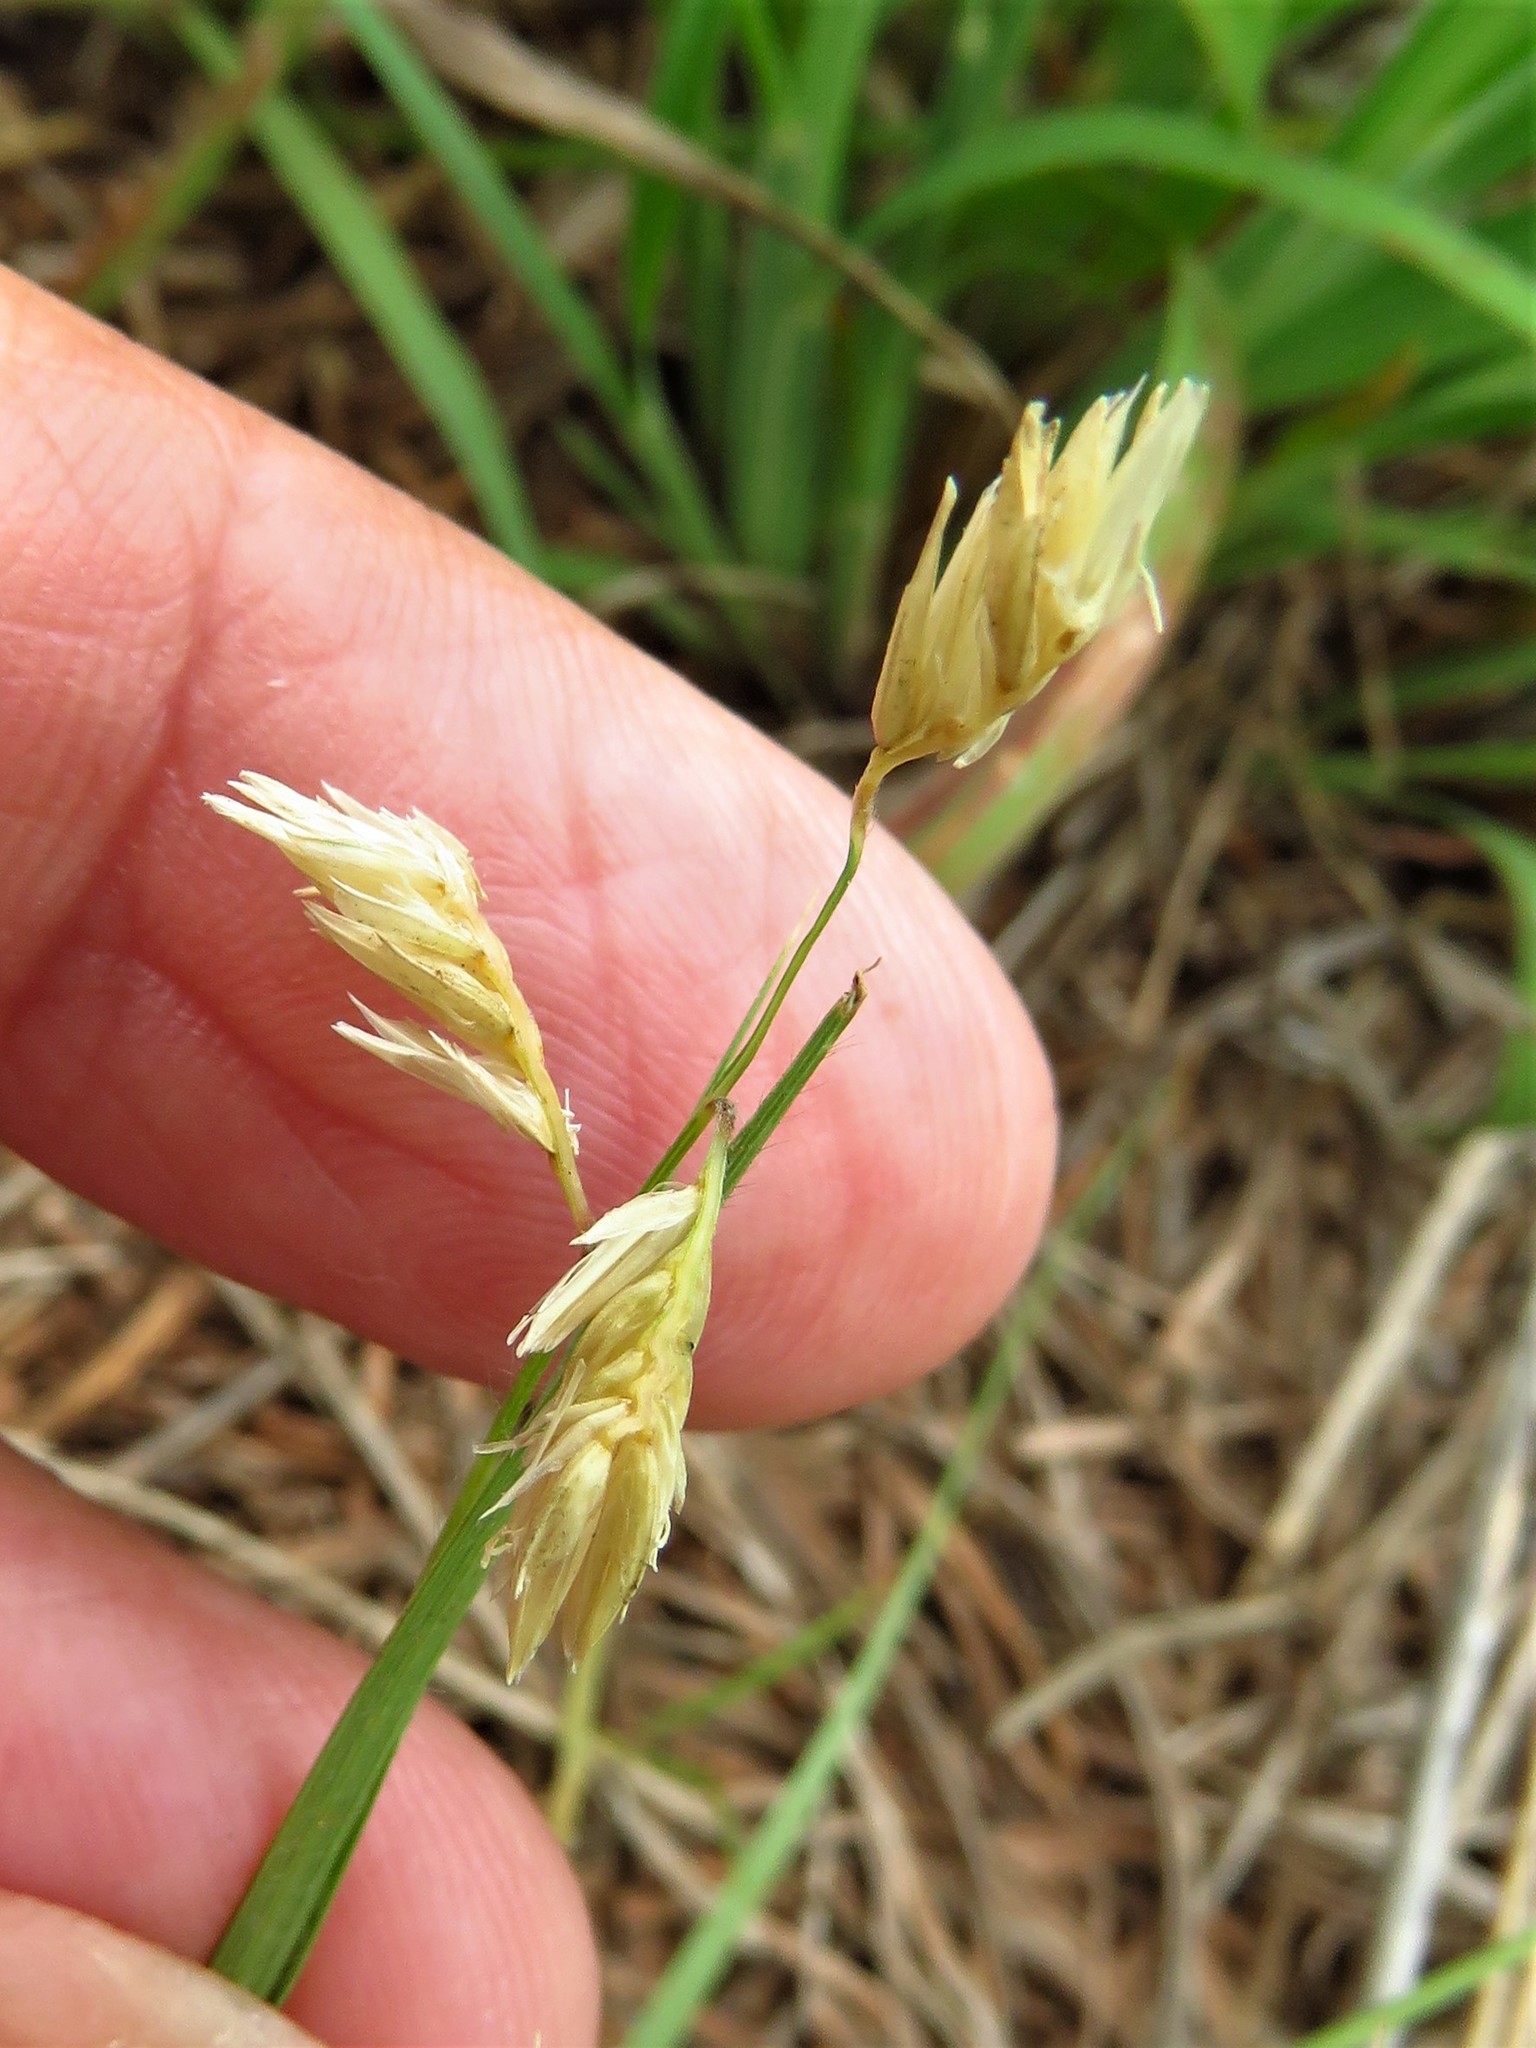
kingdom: Plantae
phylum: Tracheophyta
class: Liliopsida
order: Poales
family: Poaceae
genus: Bouteloua
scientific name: Bouteloua dactyloides
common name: Buffalo grass
